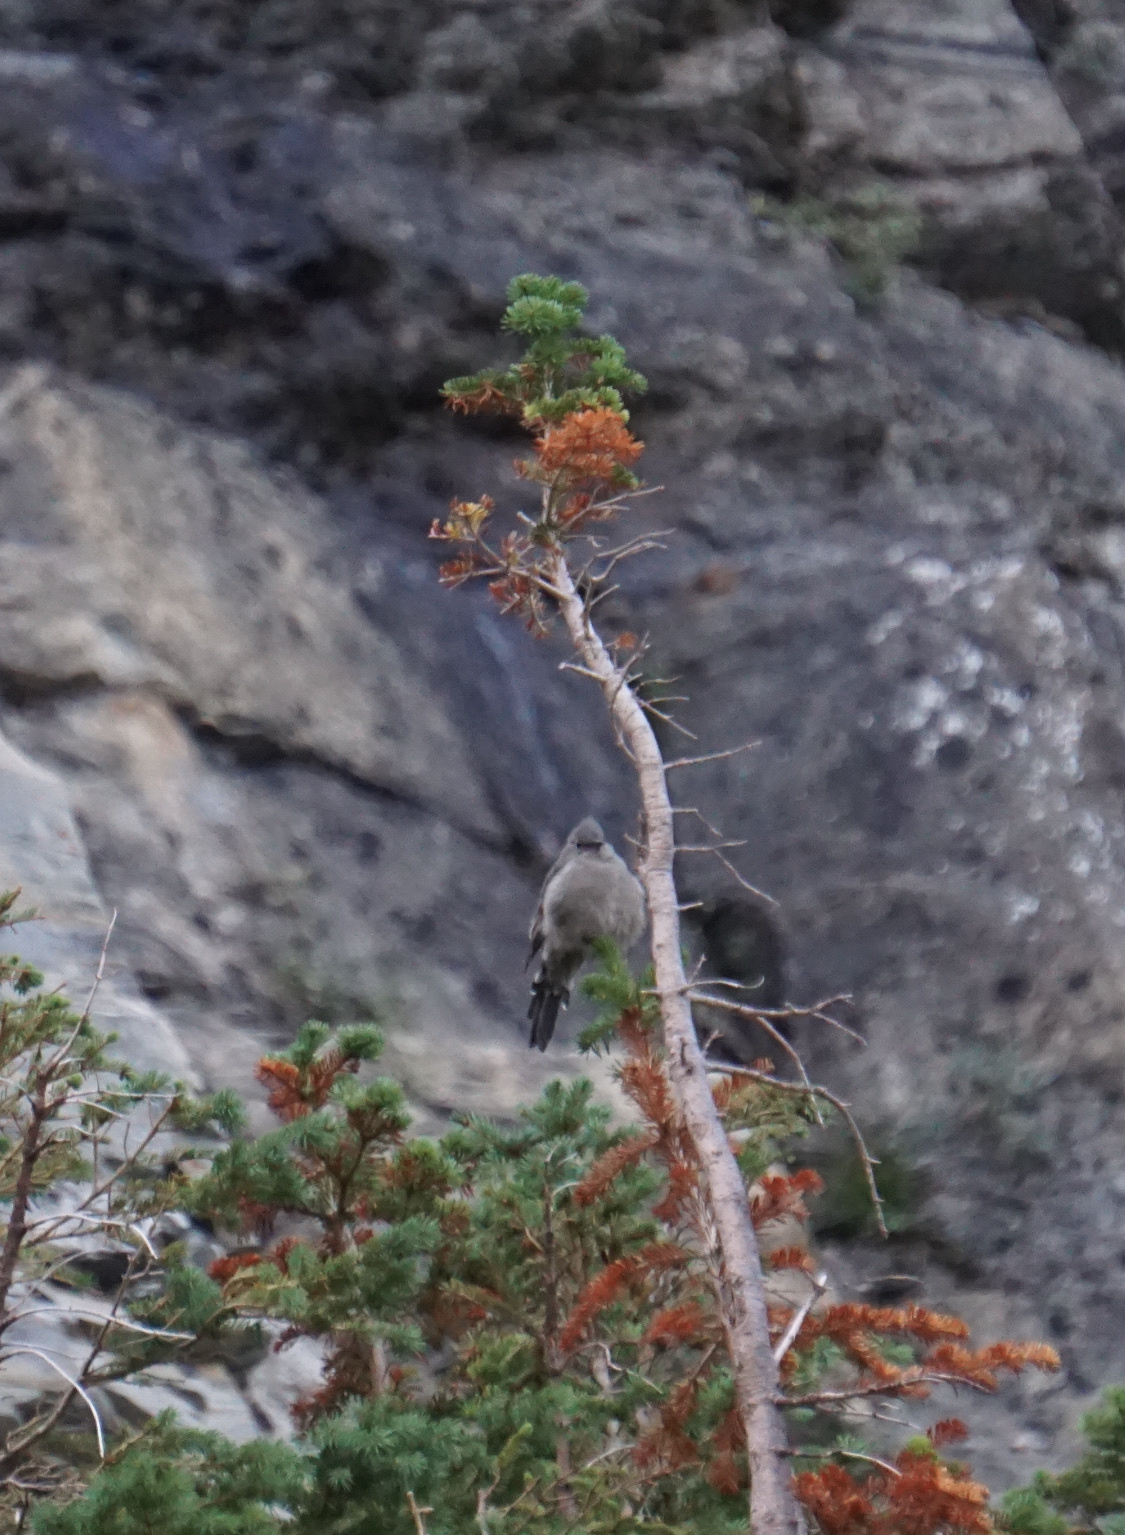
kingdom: Animalia
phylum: Chordata
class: Aves
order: Passeriformes
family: Turdidae
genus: Myadestes
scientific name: Myadestes townsendi
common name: Townsend's solitaire
